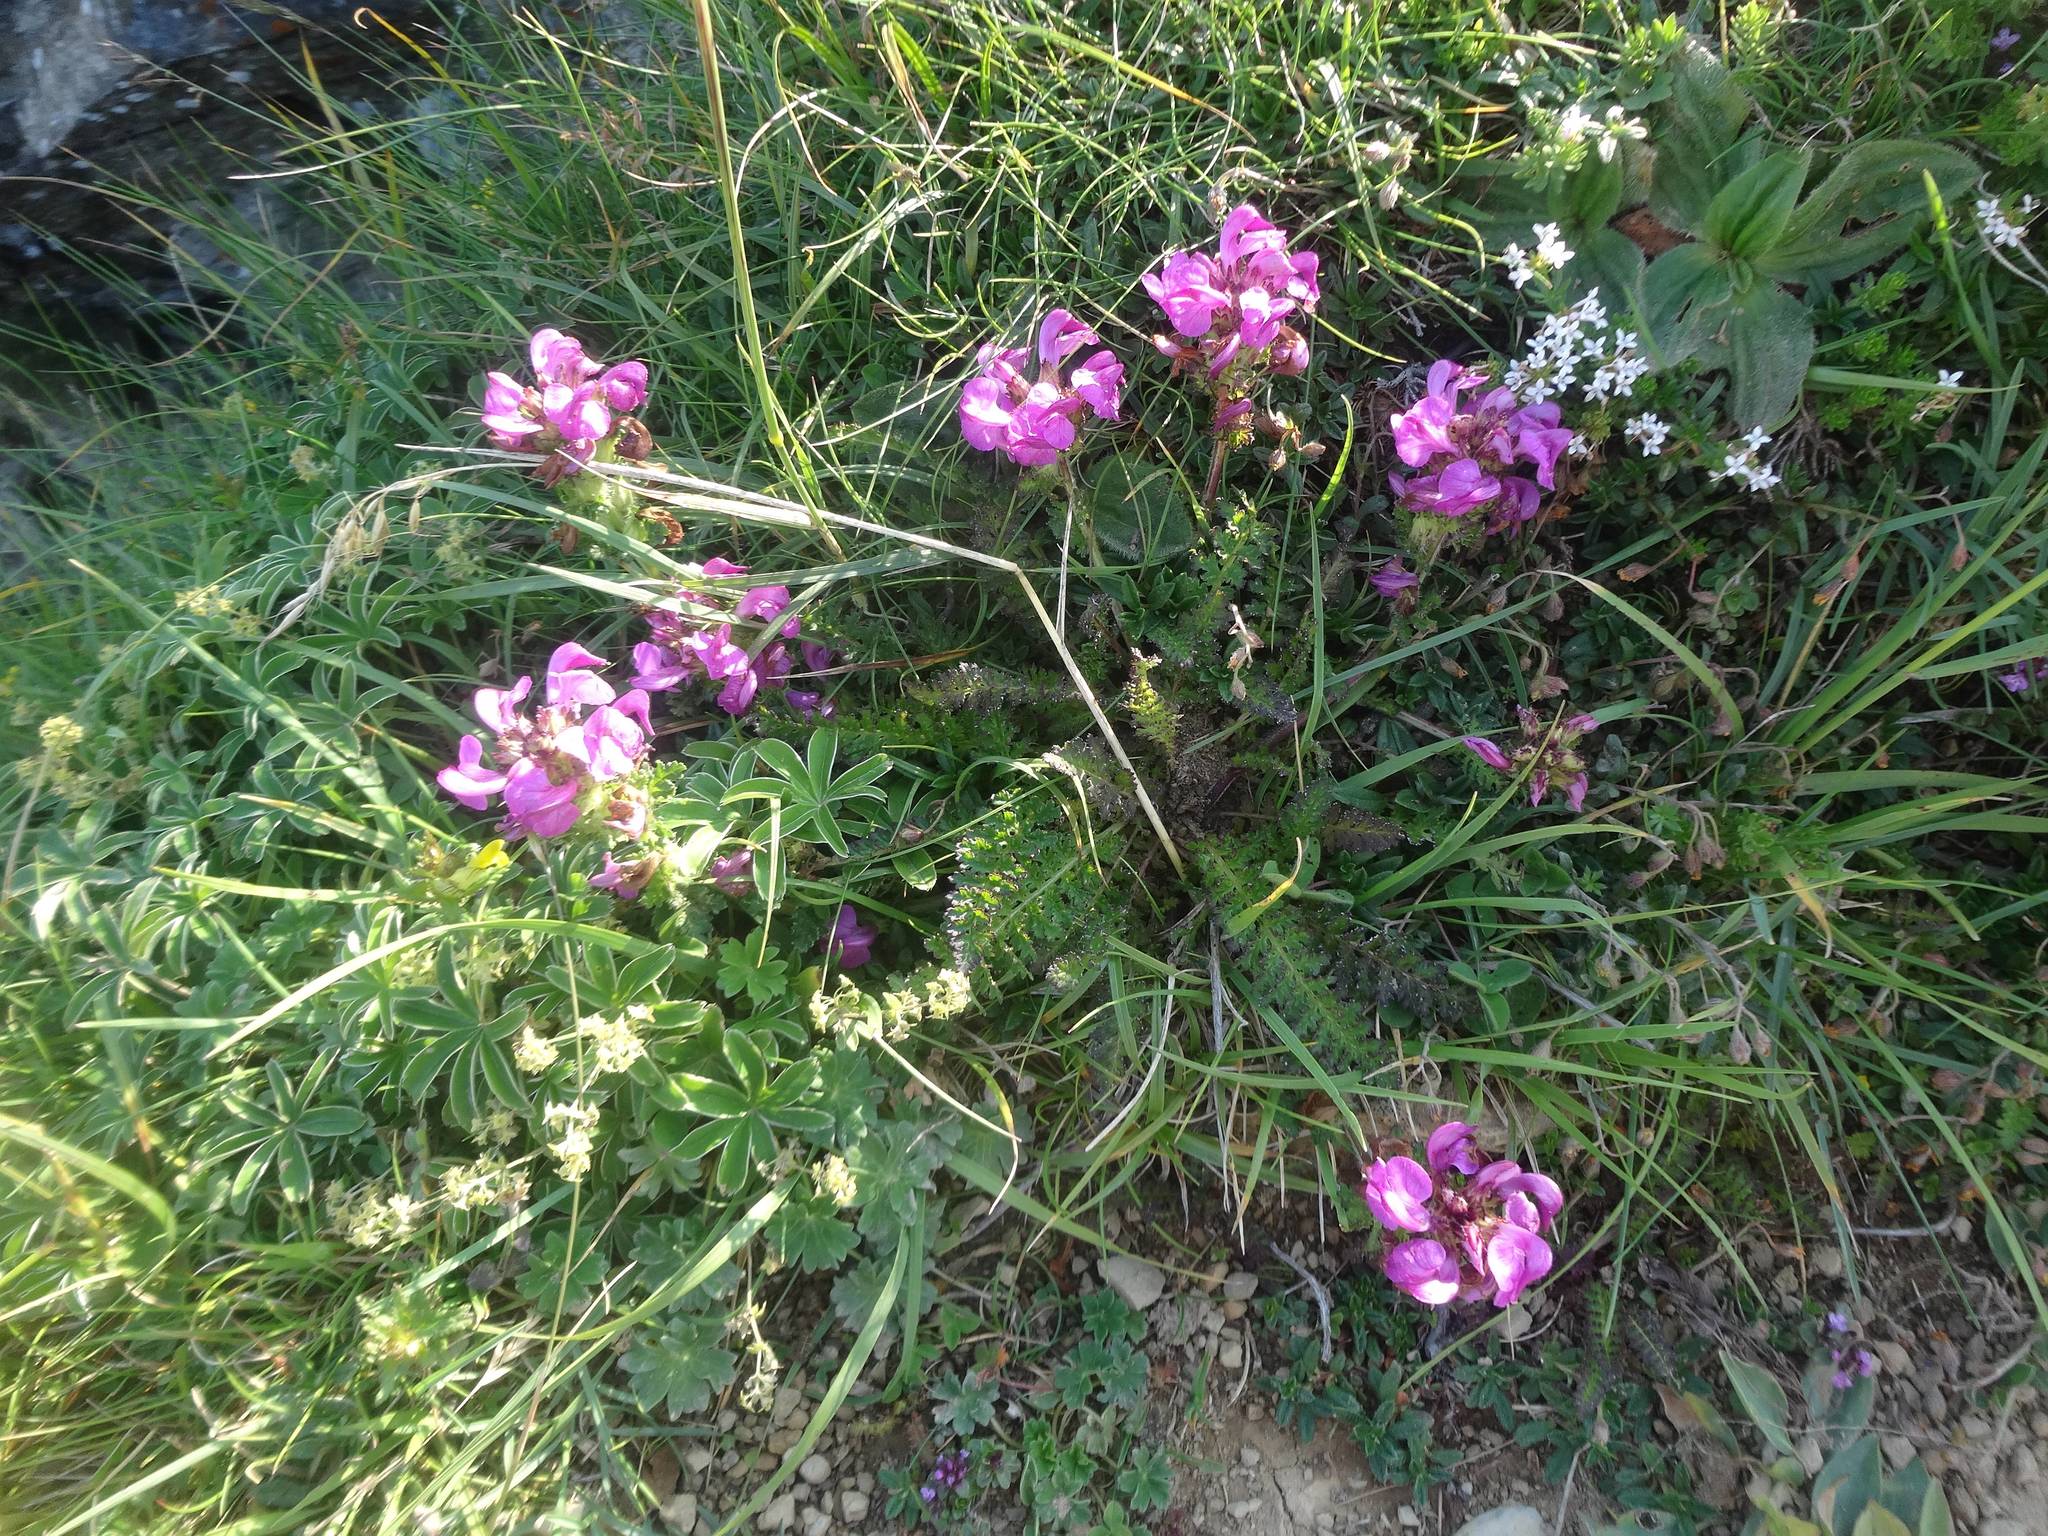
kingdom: Plantae
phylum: Tracheophyta
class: Magnoliopsida
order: Lamiales
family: Orobanchaceae
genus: Pedicularis
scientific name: Pedicularis pyrenaica
